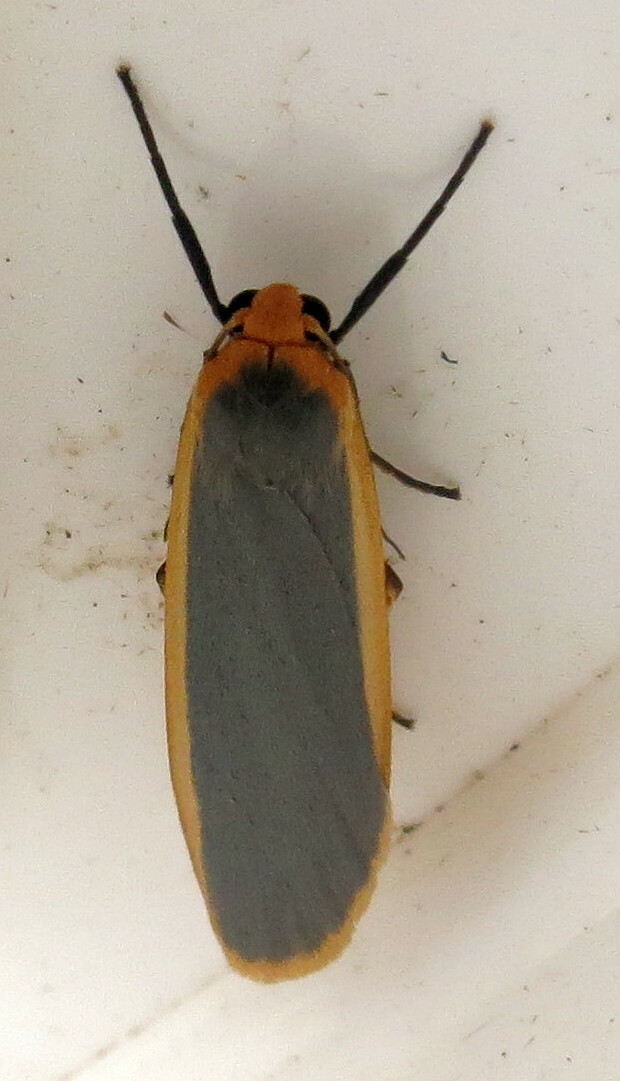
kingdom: Animalia
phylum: Arthropoda
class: Insecta
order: Lepidoptera
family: Erebidae
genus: Nyea
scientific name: Nyea lurideola
